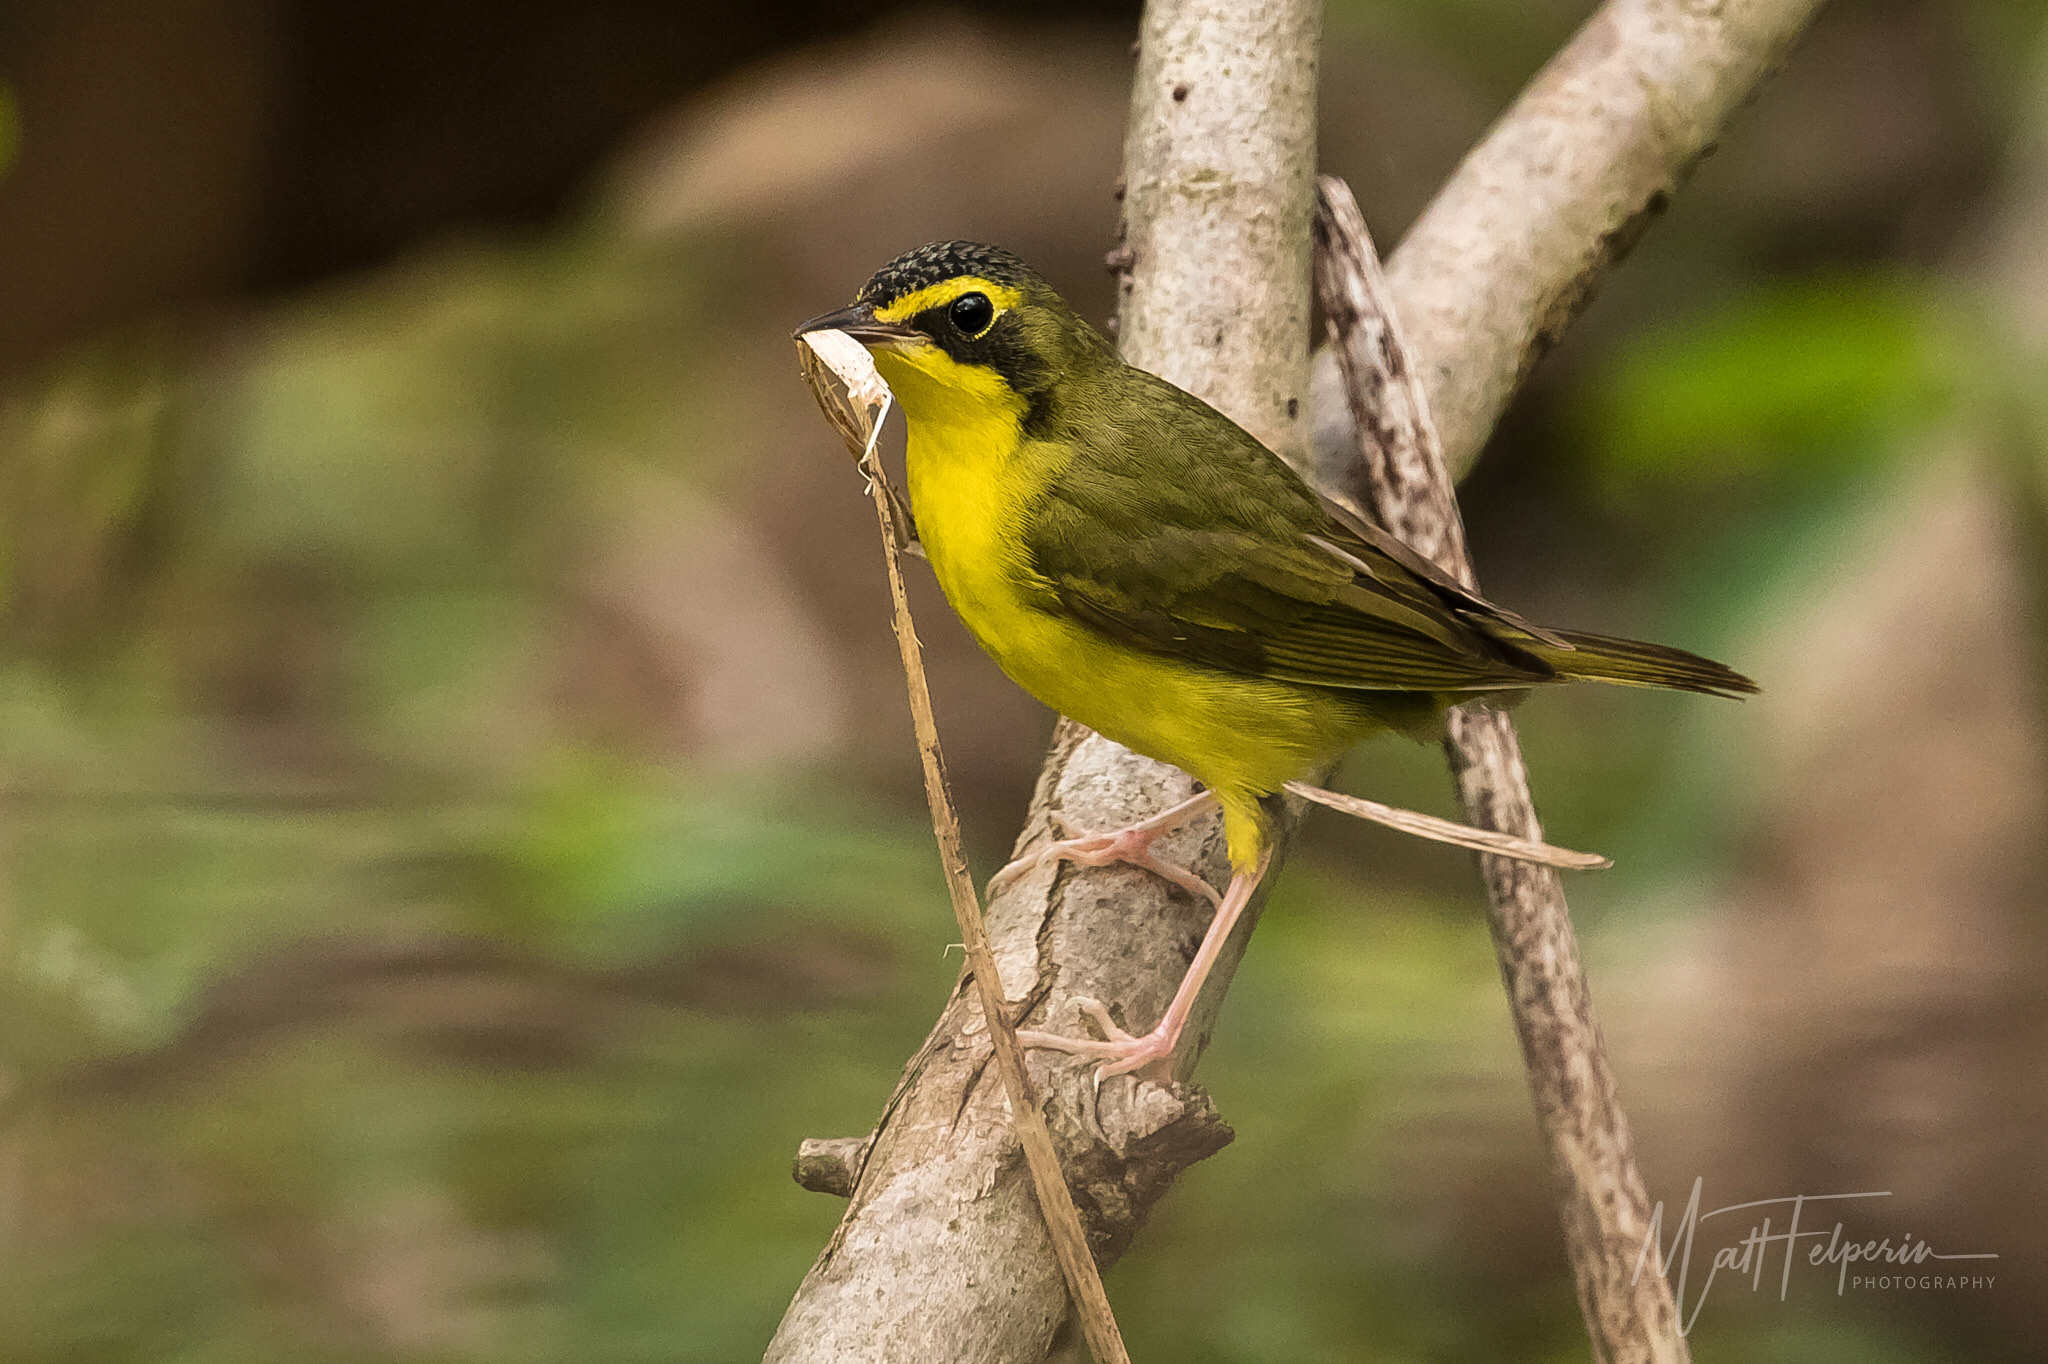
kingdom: Animalia
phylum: Chordata
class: Aves
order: Passeriformes
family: Parulidae
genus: Geothlypis
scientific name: Geothlypis formosa
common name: Kentucky warbler
